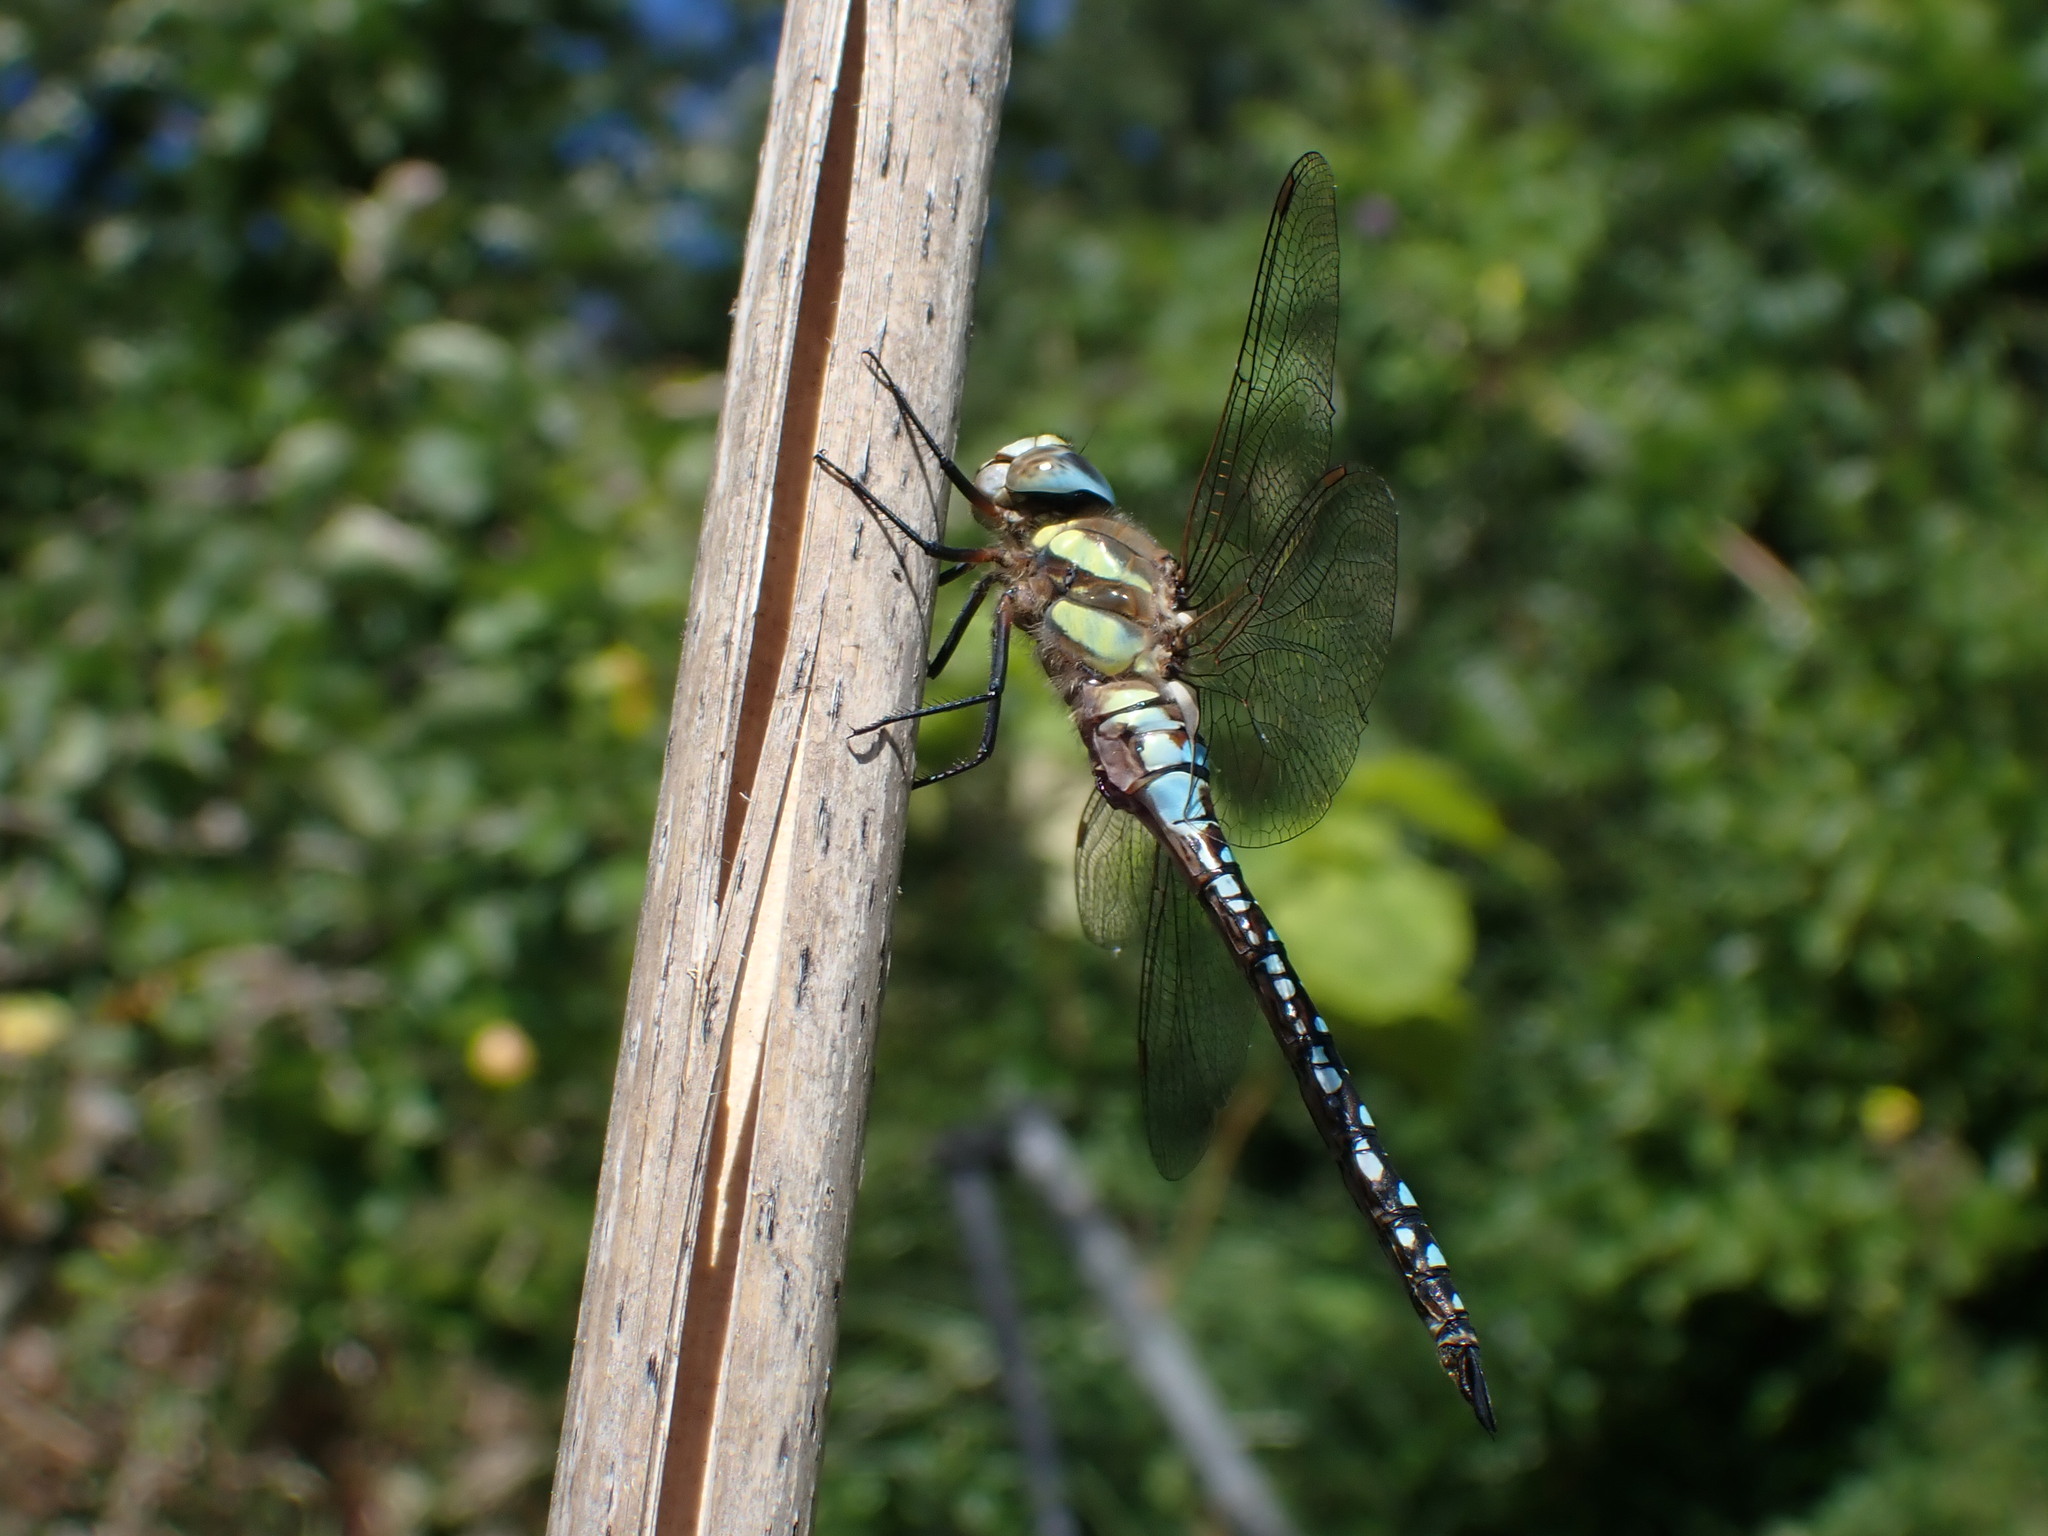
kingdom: Animalia
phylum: Arthropoda
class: Insecta
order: Odonata
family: Aeshnidae
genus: Aeshna
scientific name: Aeshna mixta
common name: Migrant hawker
